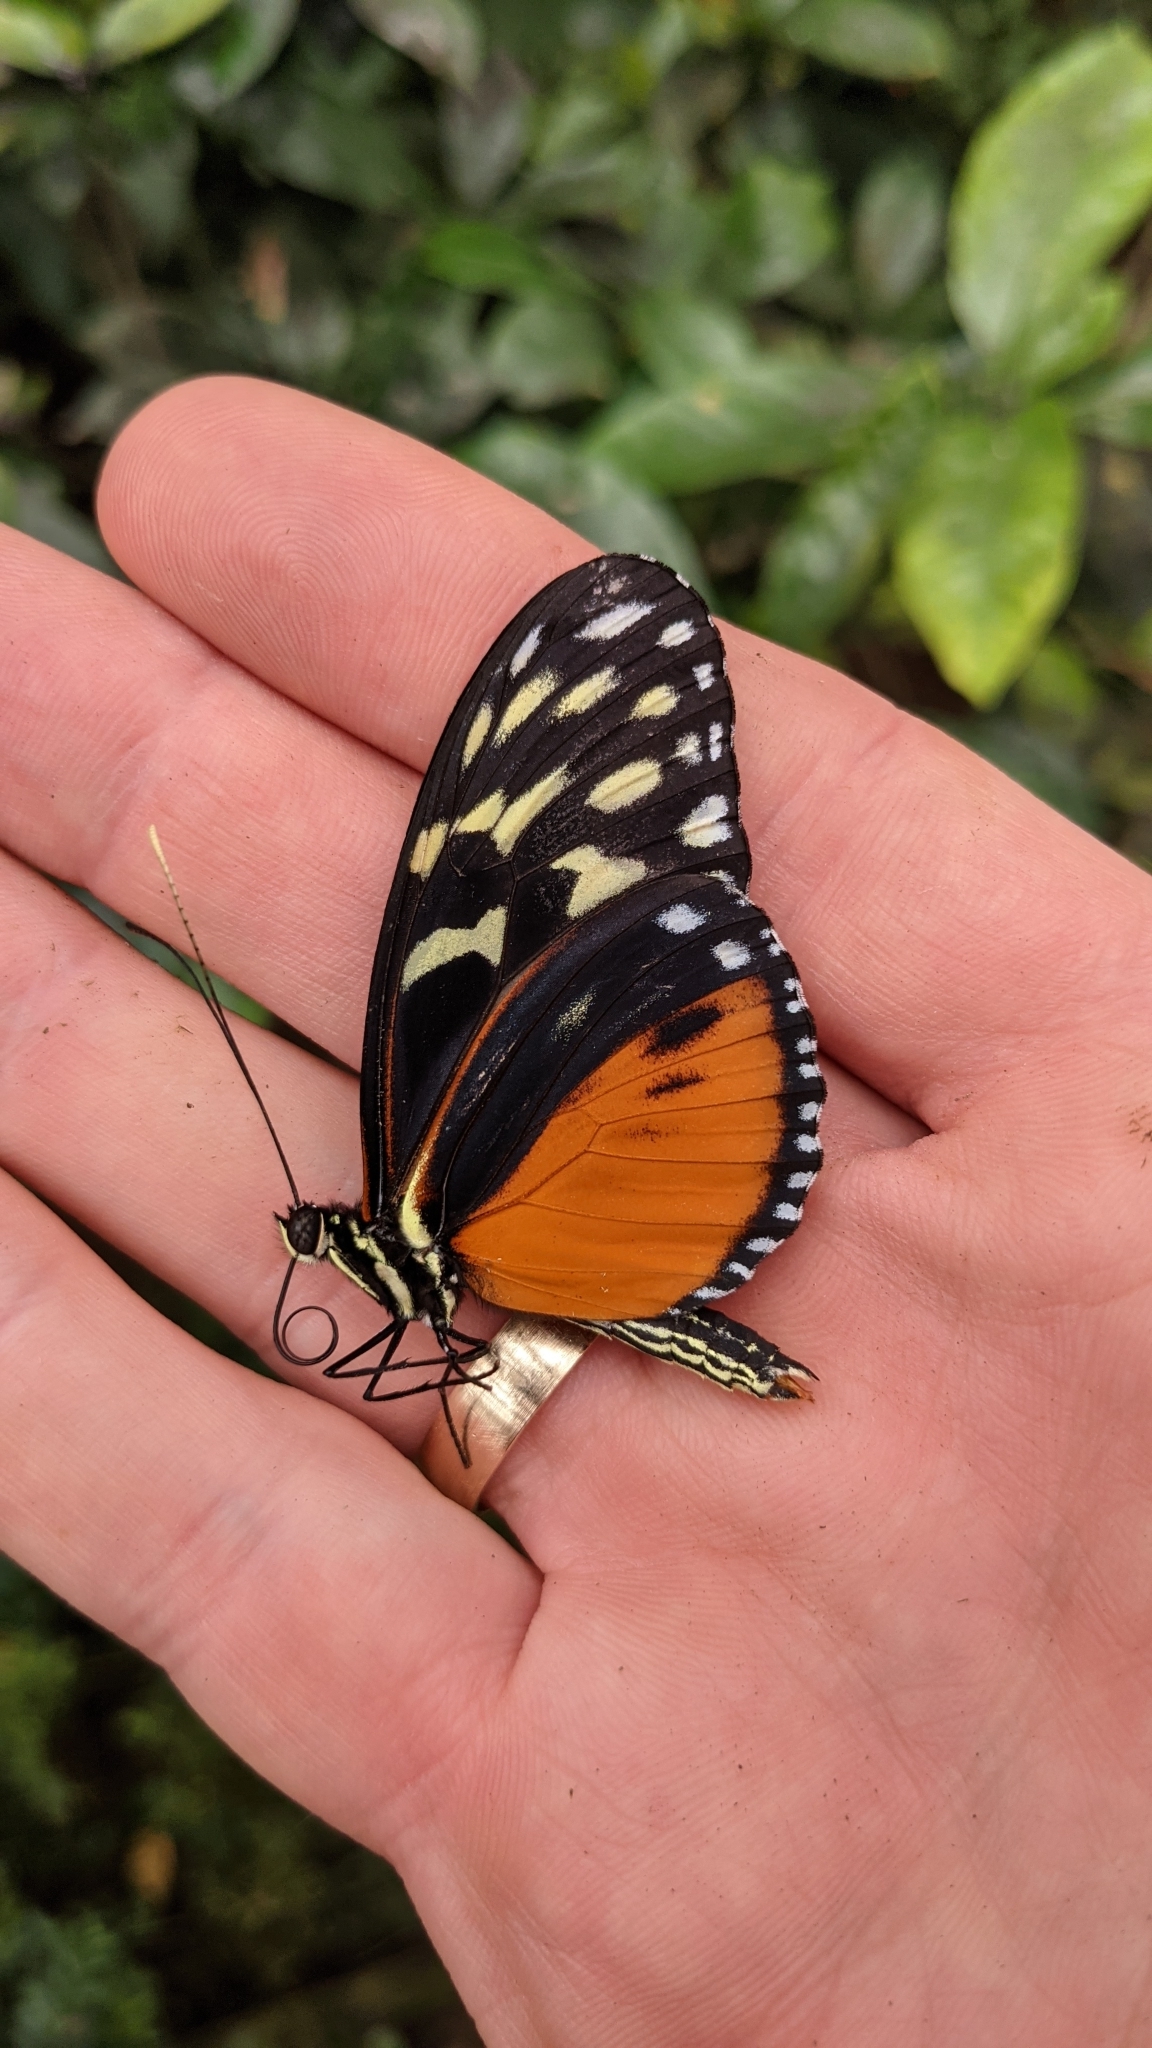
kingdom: Animalia
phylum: Arthropoda
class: Insecta
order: Lepidoptera
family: Nymphalidae
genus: Heliconius
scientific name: Heliconius hecale
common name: Tiger longwing
